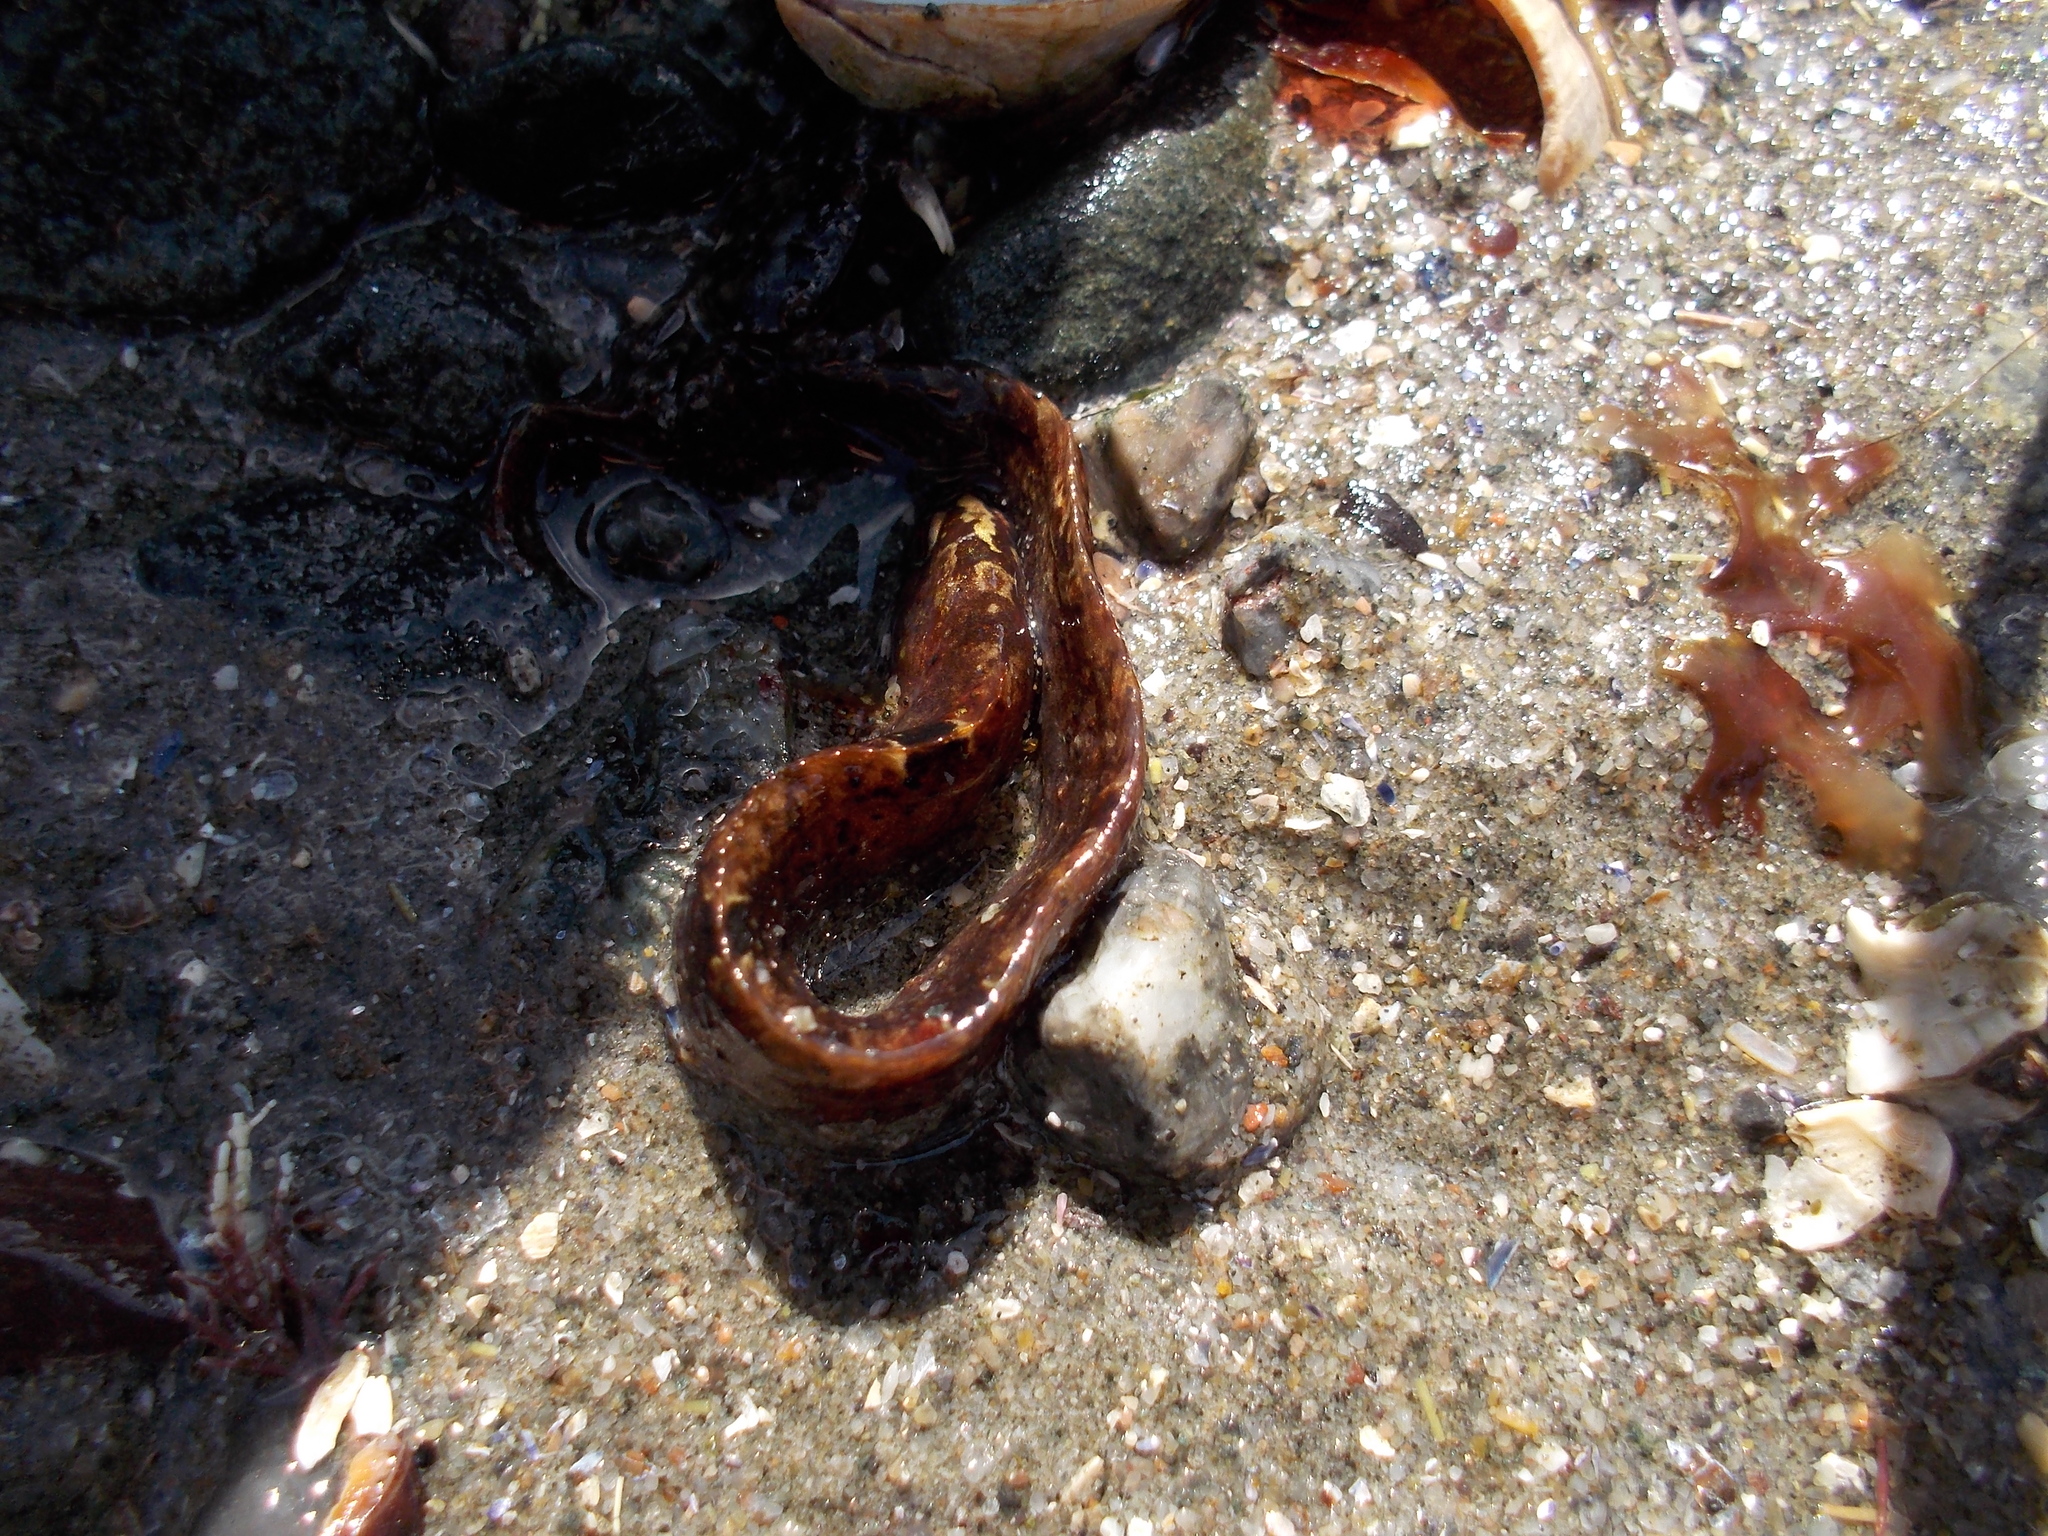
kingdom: Animalia
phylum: Chordata
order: Perciformes
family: Pholidae
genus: Pholis
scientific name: Pholis gunnellus
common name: Butterfish
